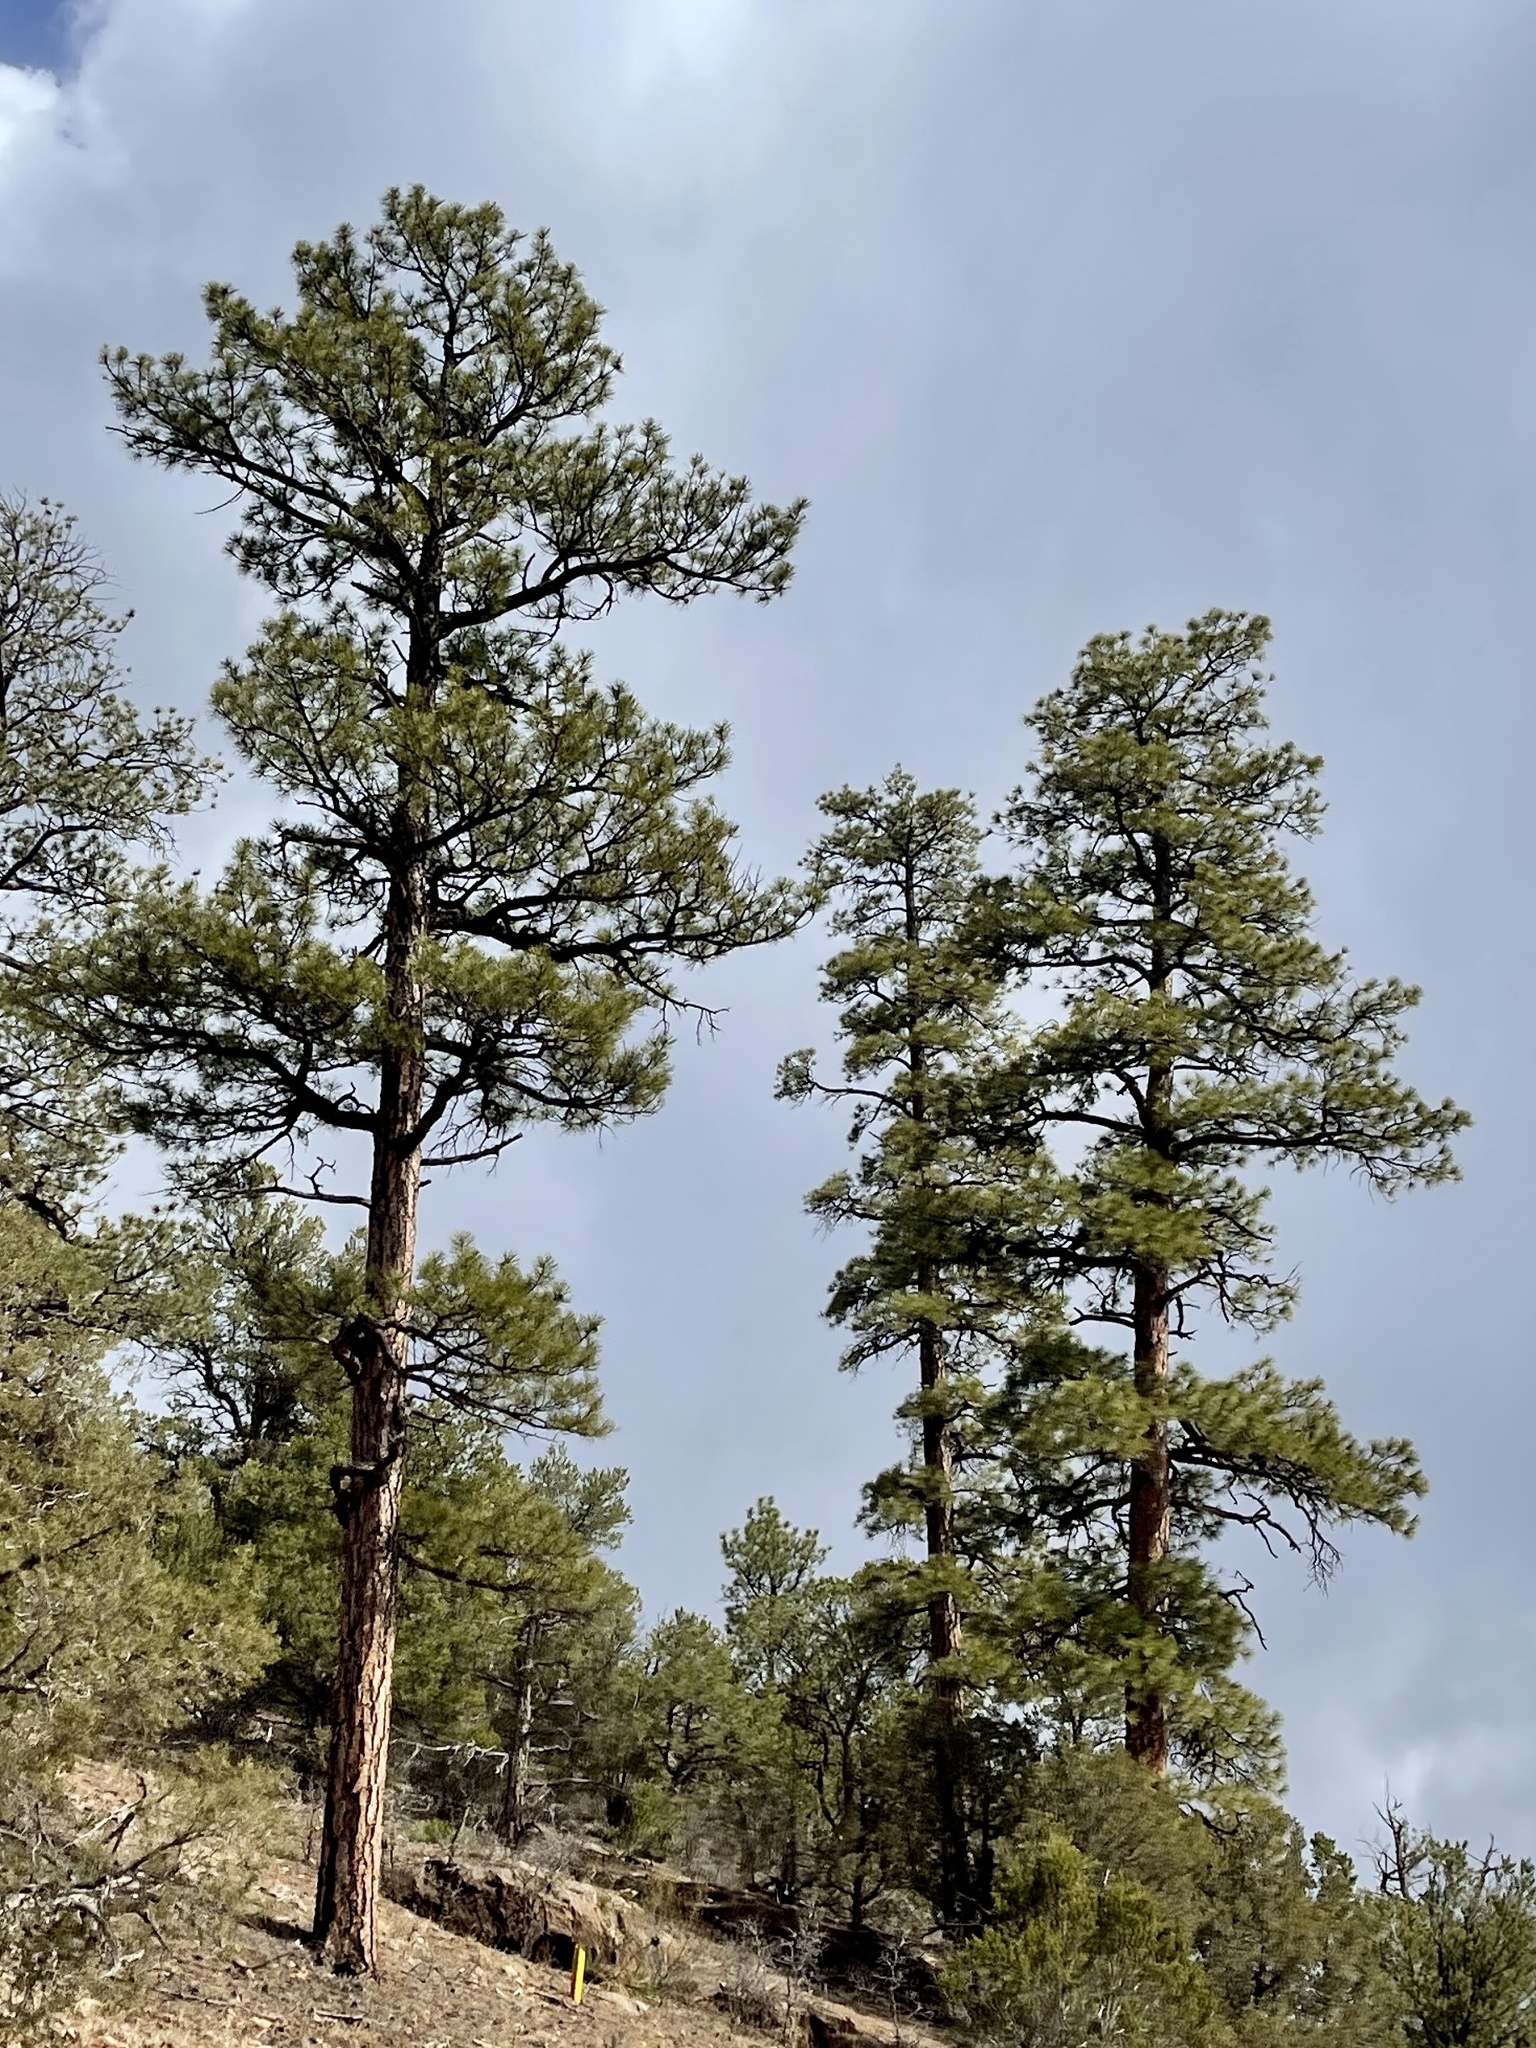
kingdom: Plantae
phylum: Tracheophyta
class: Pinopsida
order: Pinales
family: Pinaceae
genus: Pinus
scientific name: Pinus ponderosa
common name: Western yellow-pine
